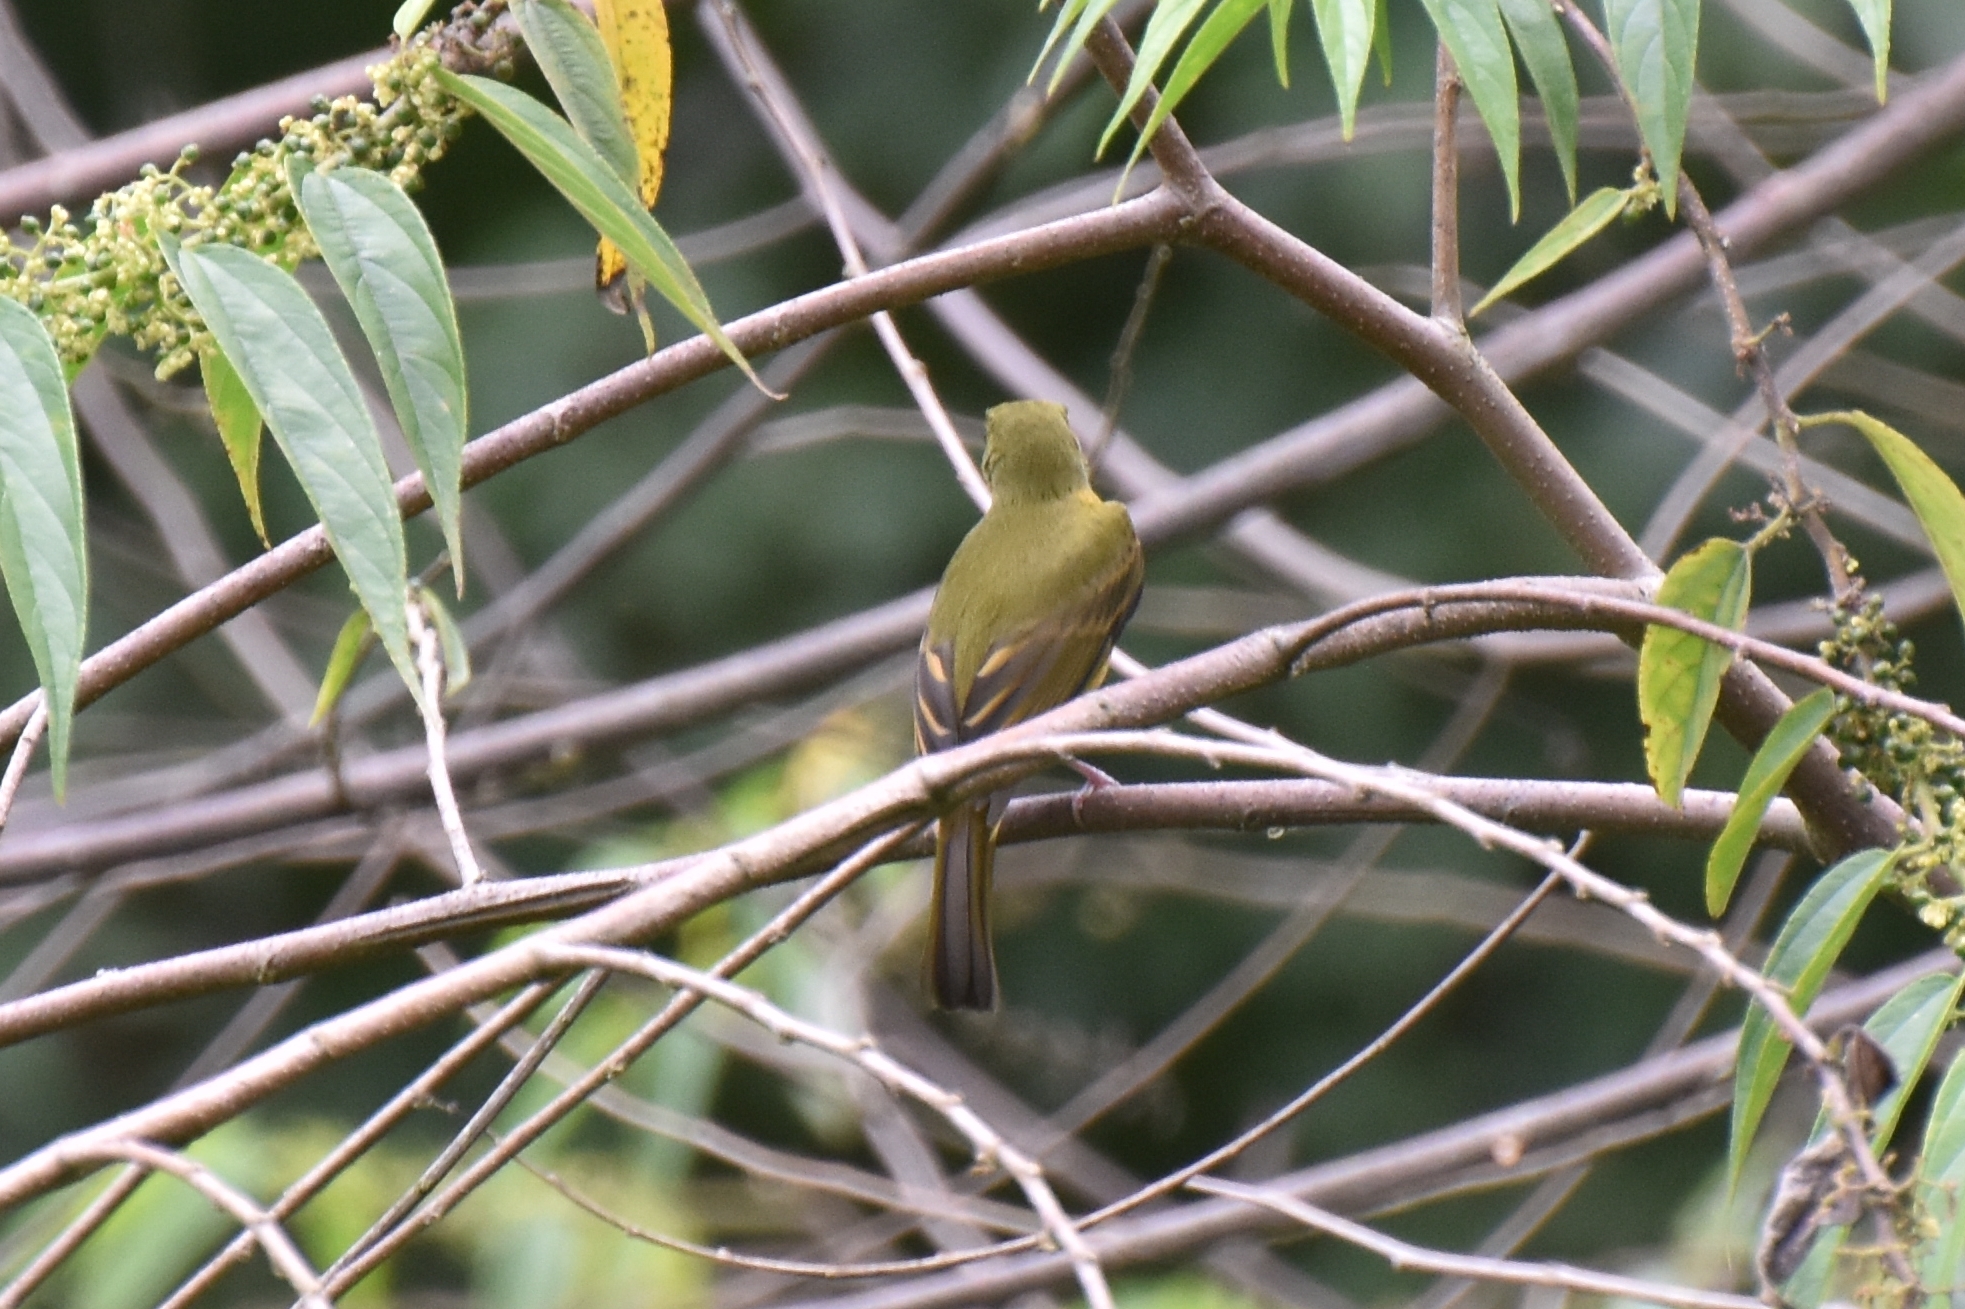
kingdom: Animalia
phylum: Chordata
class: Aves
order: Passeriformes
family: Tyrannidae
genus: Mionectes
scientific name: Mionectes oleagineus
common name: Ochre-bellied flycatcher
